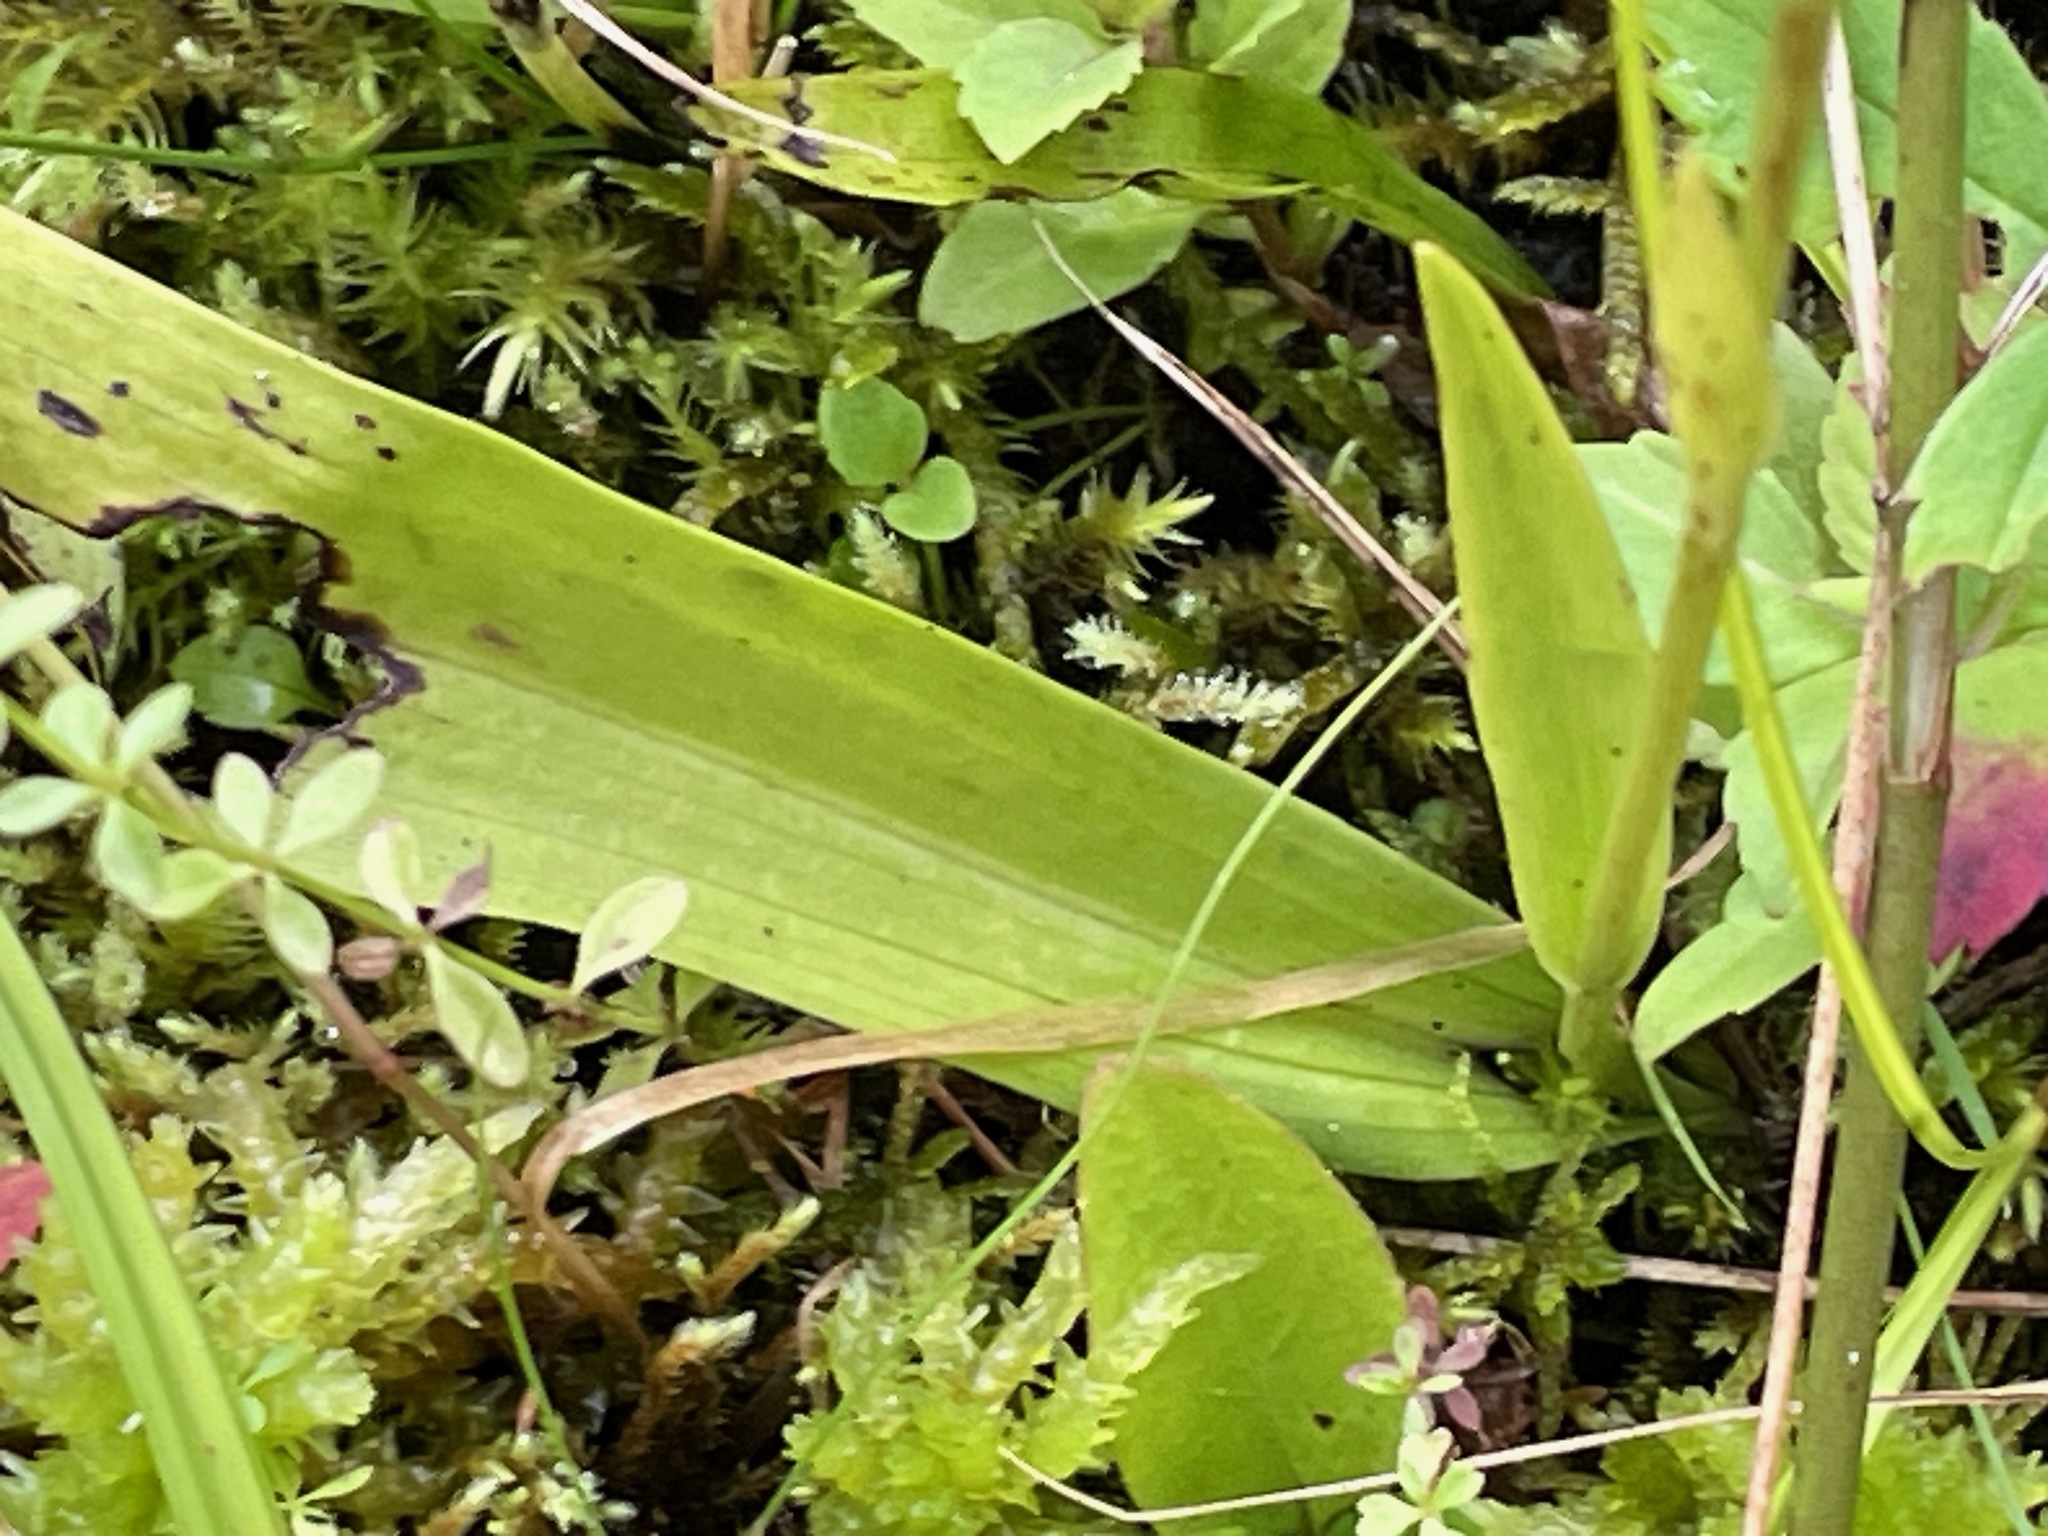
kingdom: Plantae
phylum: Tracheophyta
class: Liliopsida
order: Asparagales
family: Orchidaceae
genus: Platanthera
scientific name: Platanthera clavellata
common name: Club-spur orchid
